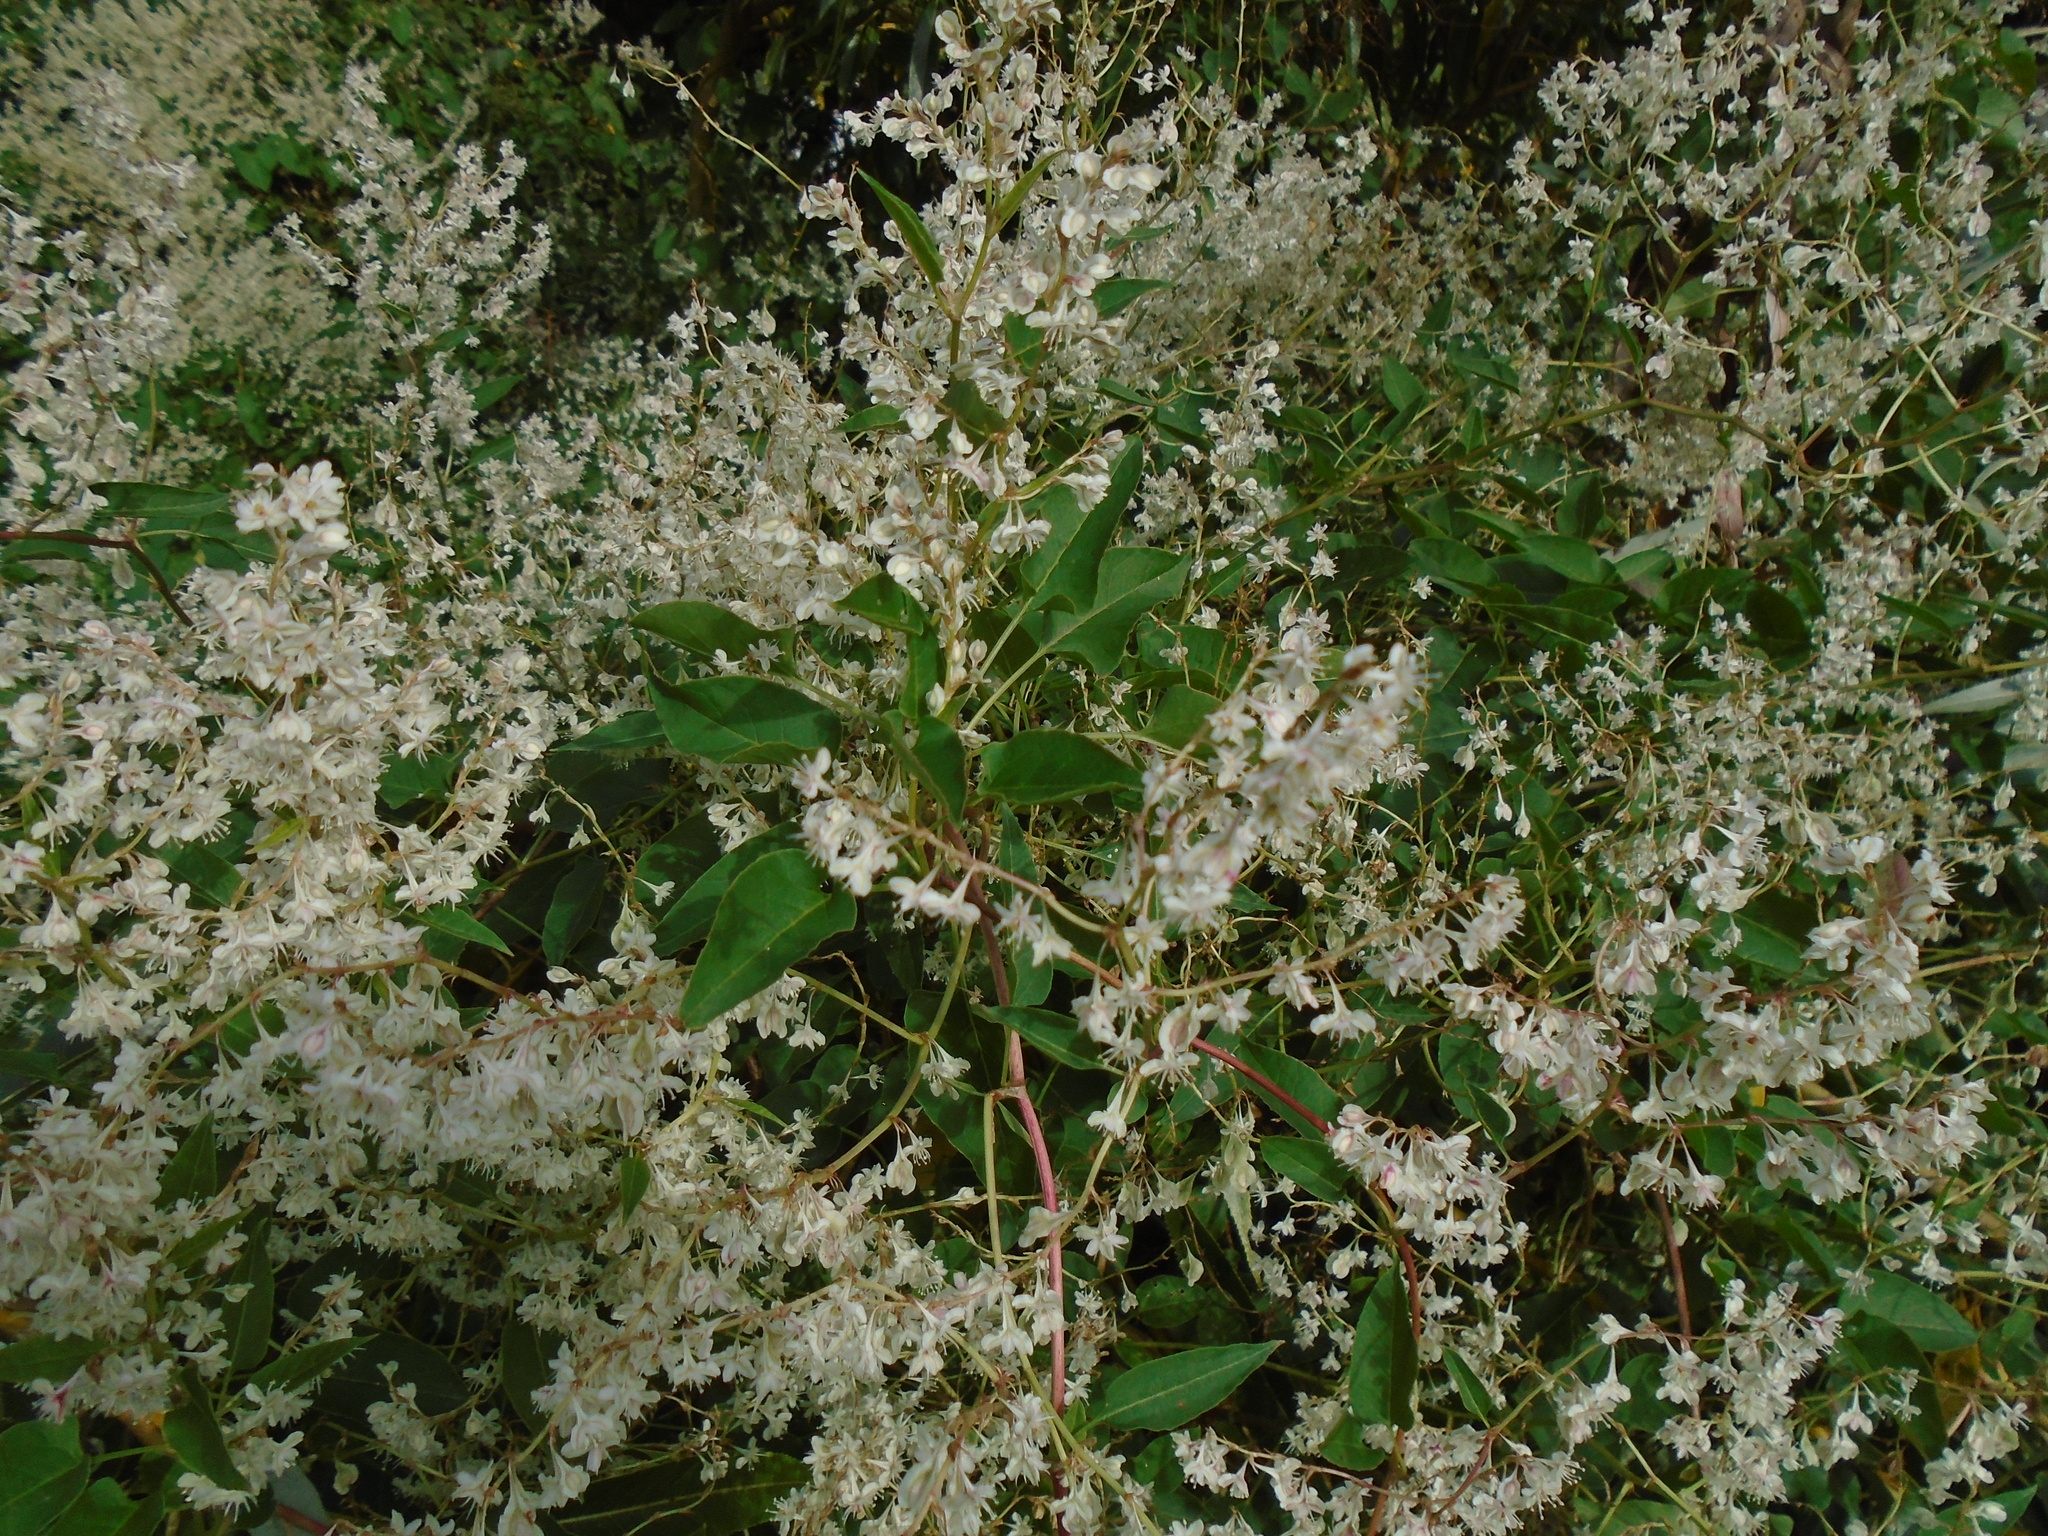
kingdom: Plantae
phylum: Tracheophyta
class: Magnoliopsida
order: Caryophyllales
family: Polygonaceae
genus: Fallopia
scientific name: Fallopia baldschuanica
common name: Russian-vine
